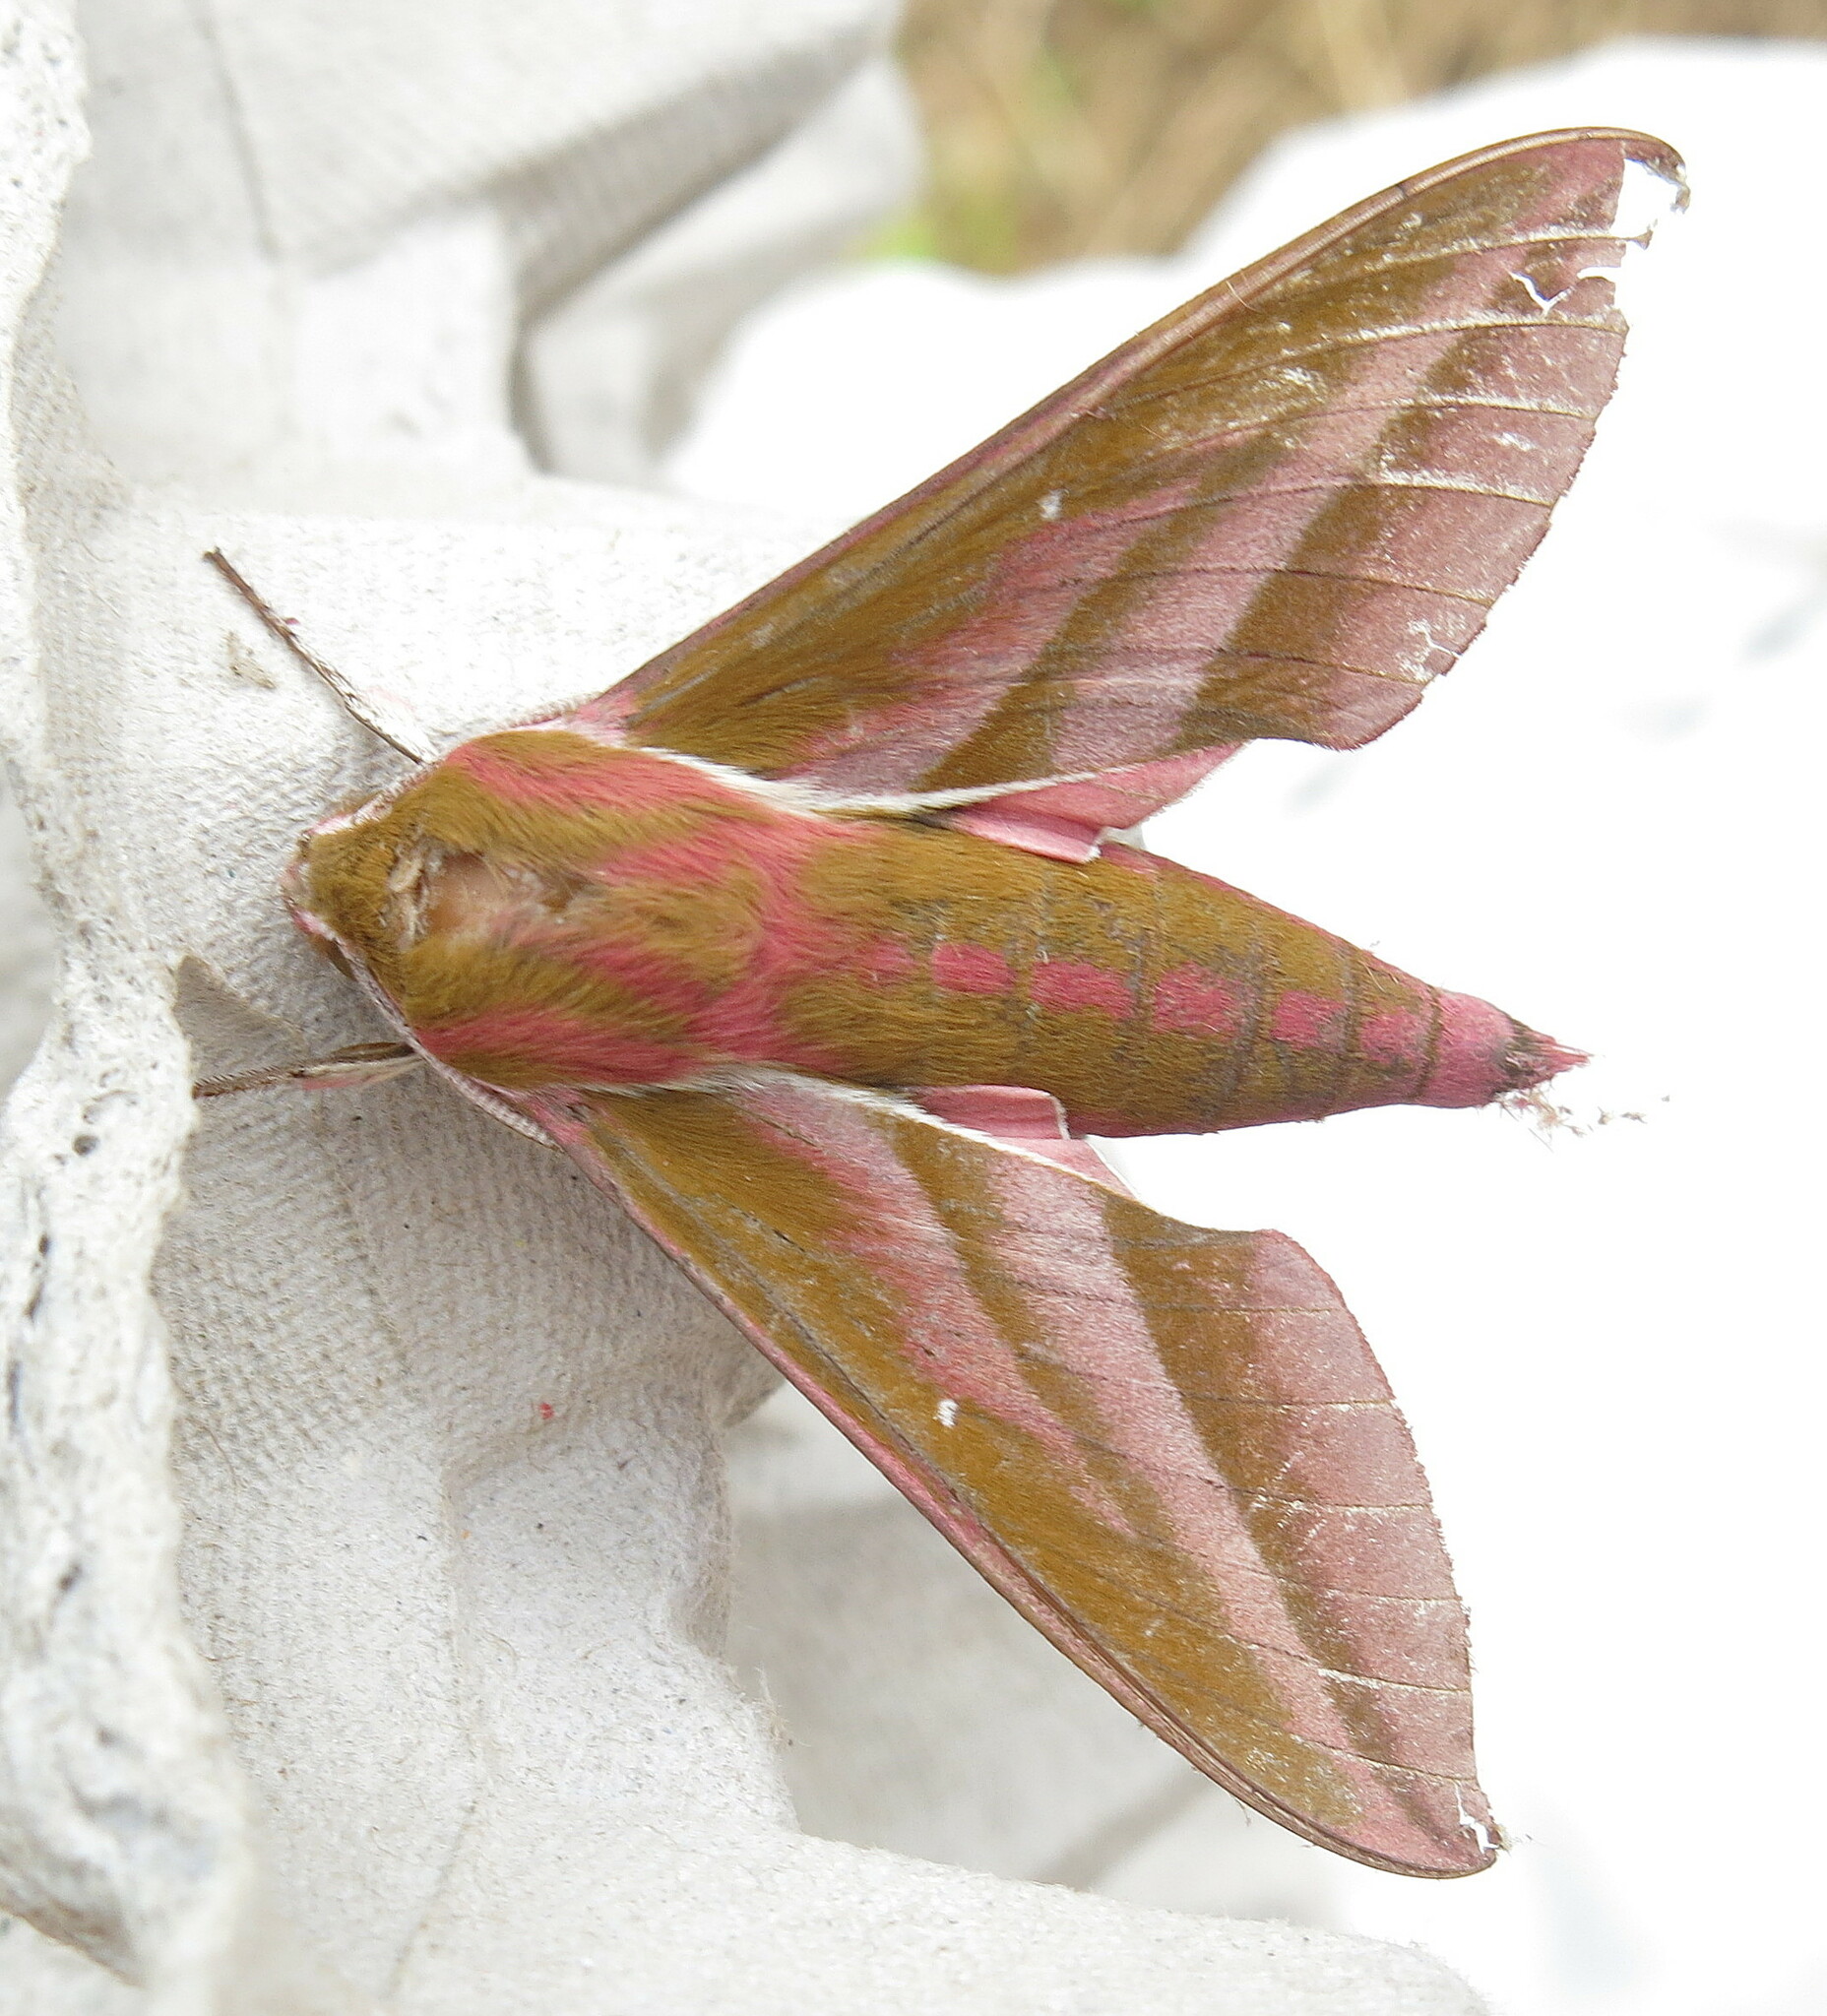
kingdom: Animalia
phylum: Arthropoda
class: Insecta
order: Lepidoptera
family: Sphingidae
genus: Deilephila
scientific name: Deilephila elpenor
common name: Elephant hawk-moth
